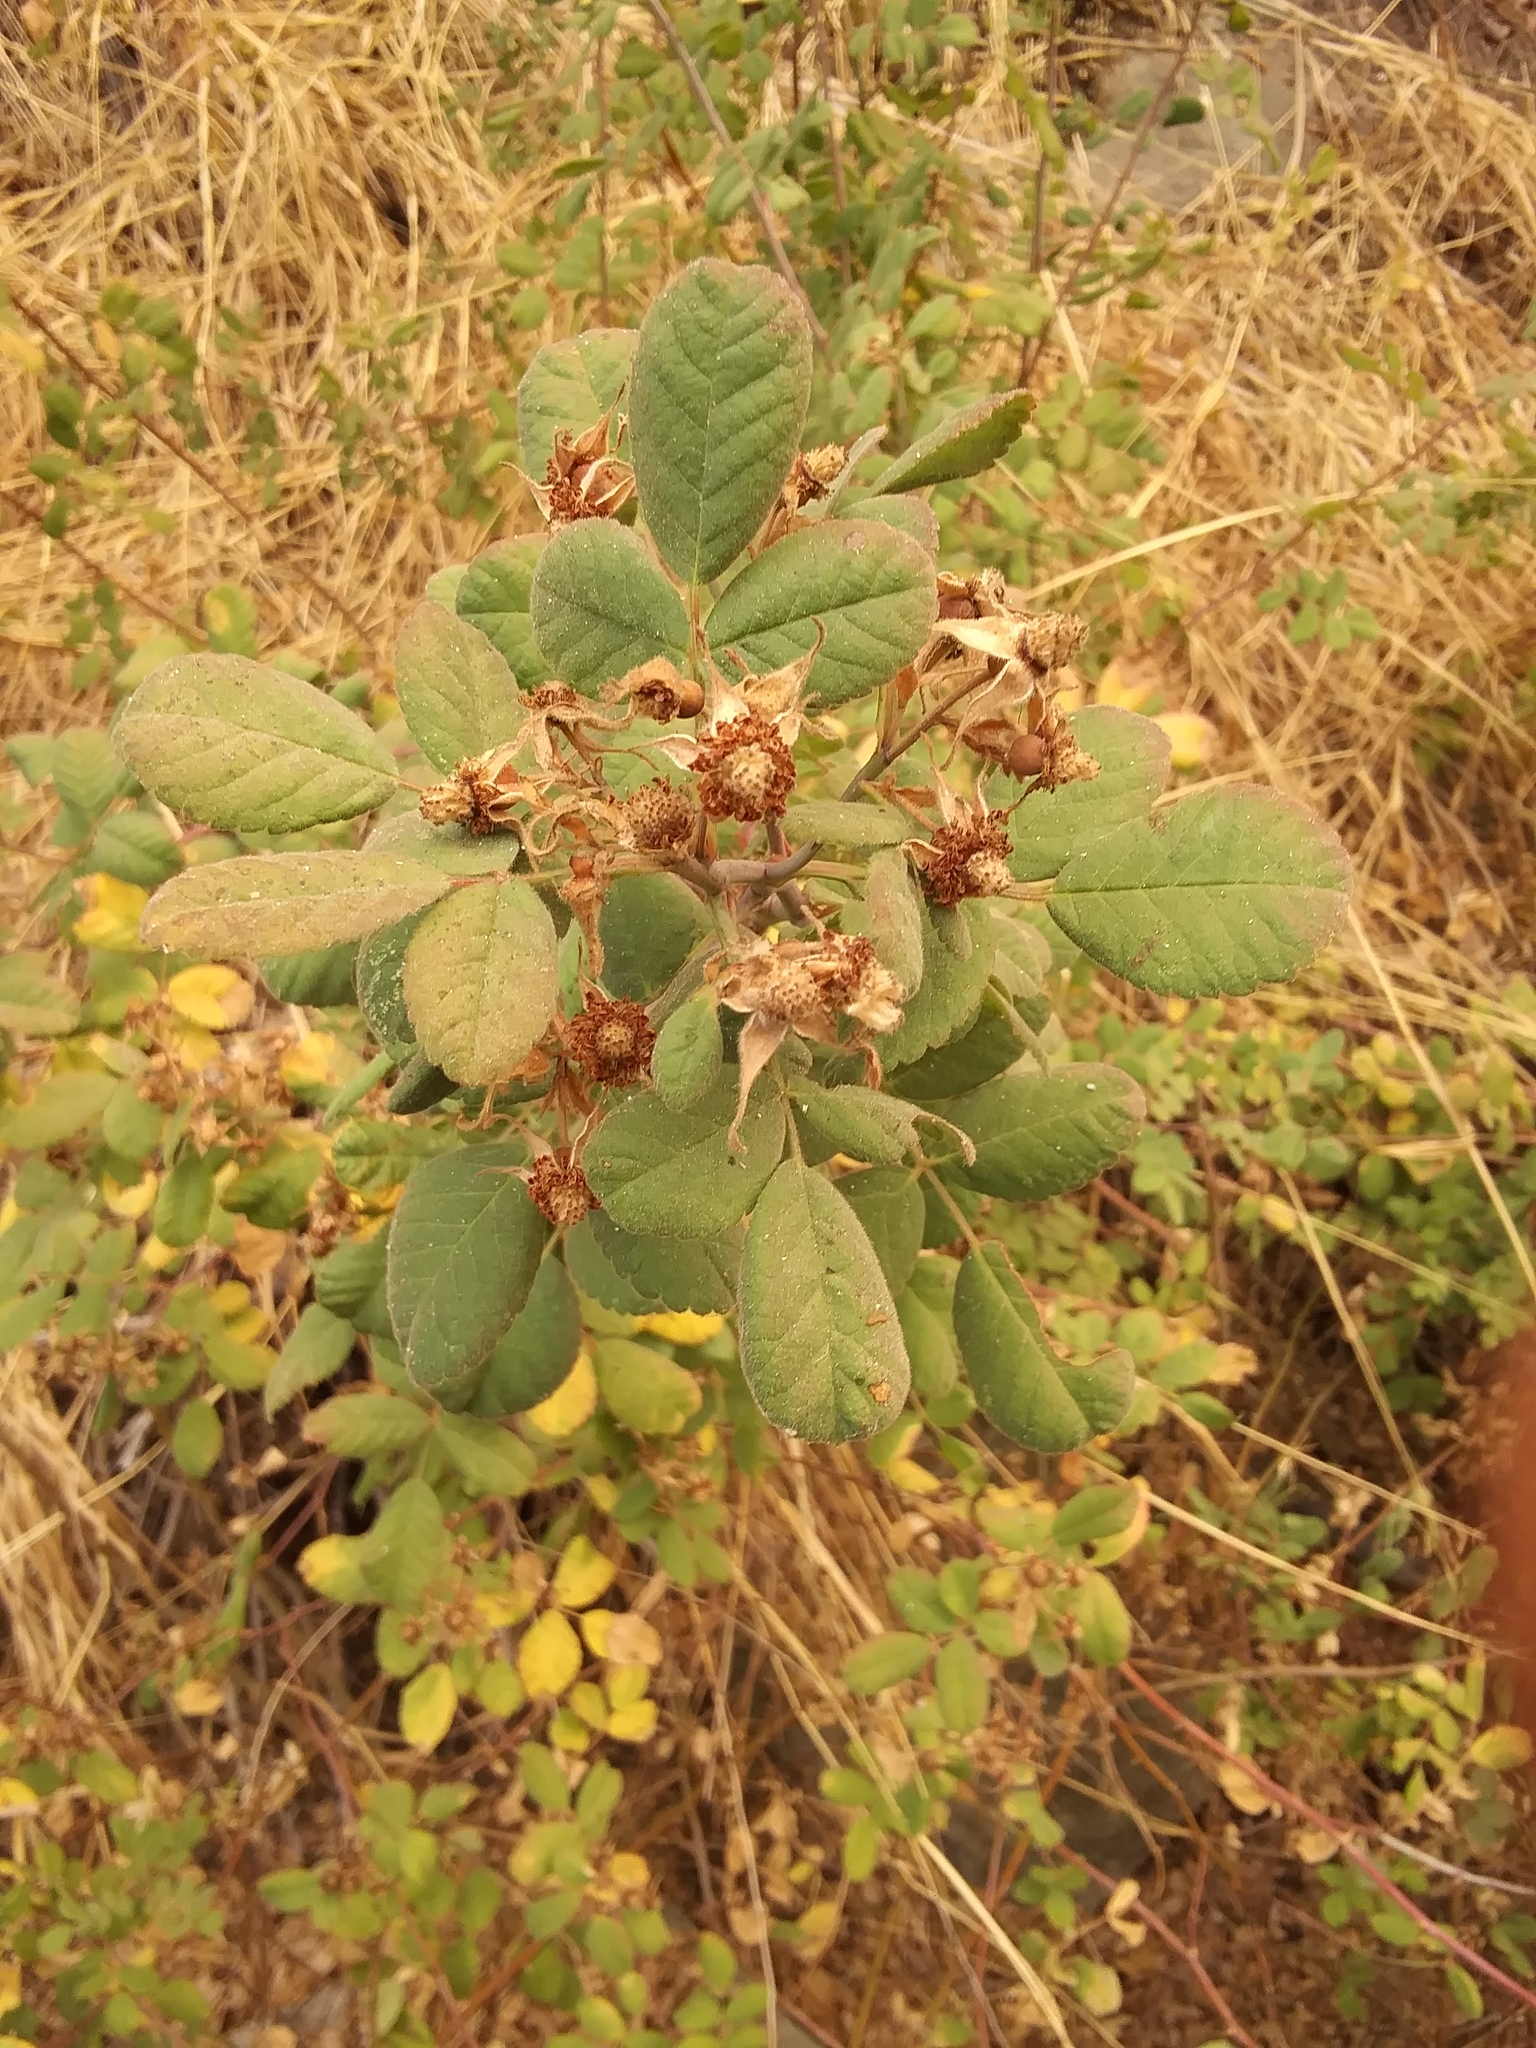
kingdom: Plantae
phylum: Tracheophyta
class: Magnoliopsida
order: Rosales
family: Rosaceae
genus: Rosa
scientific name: Rosa californica
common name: California rose
